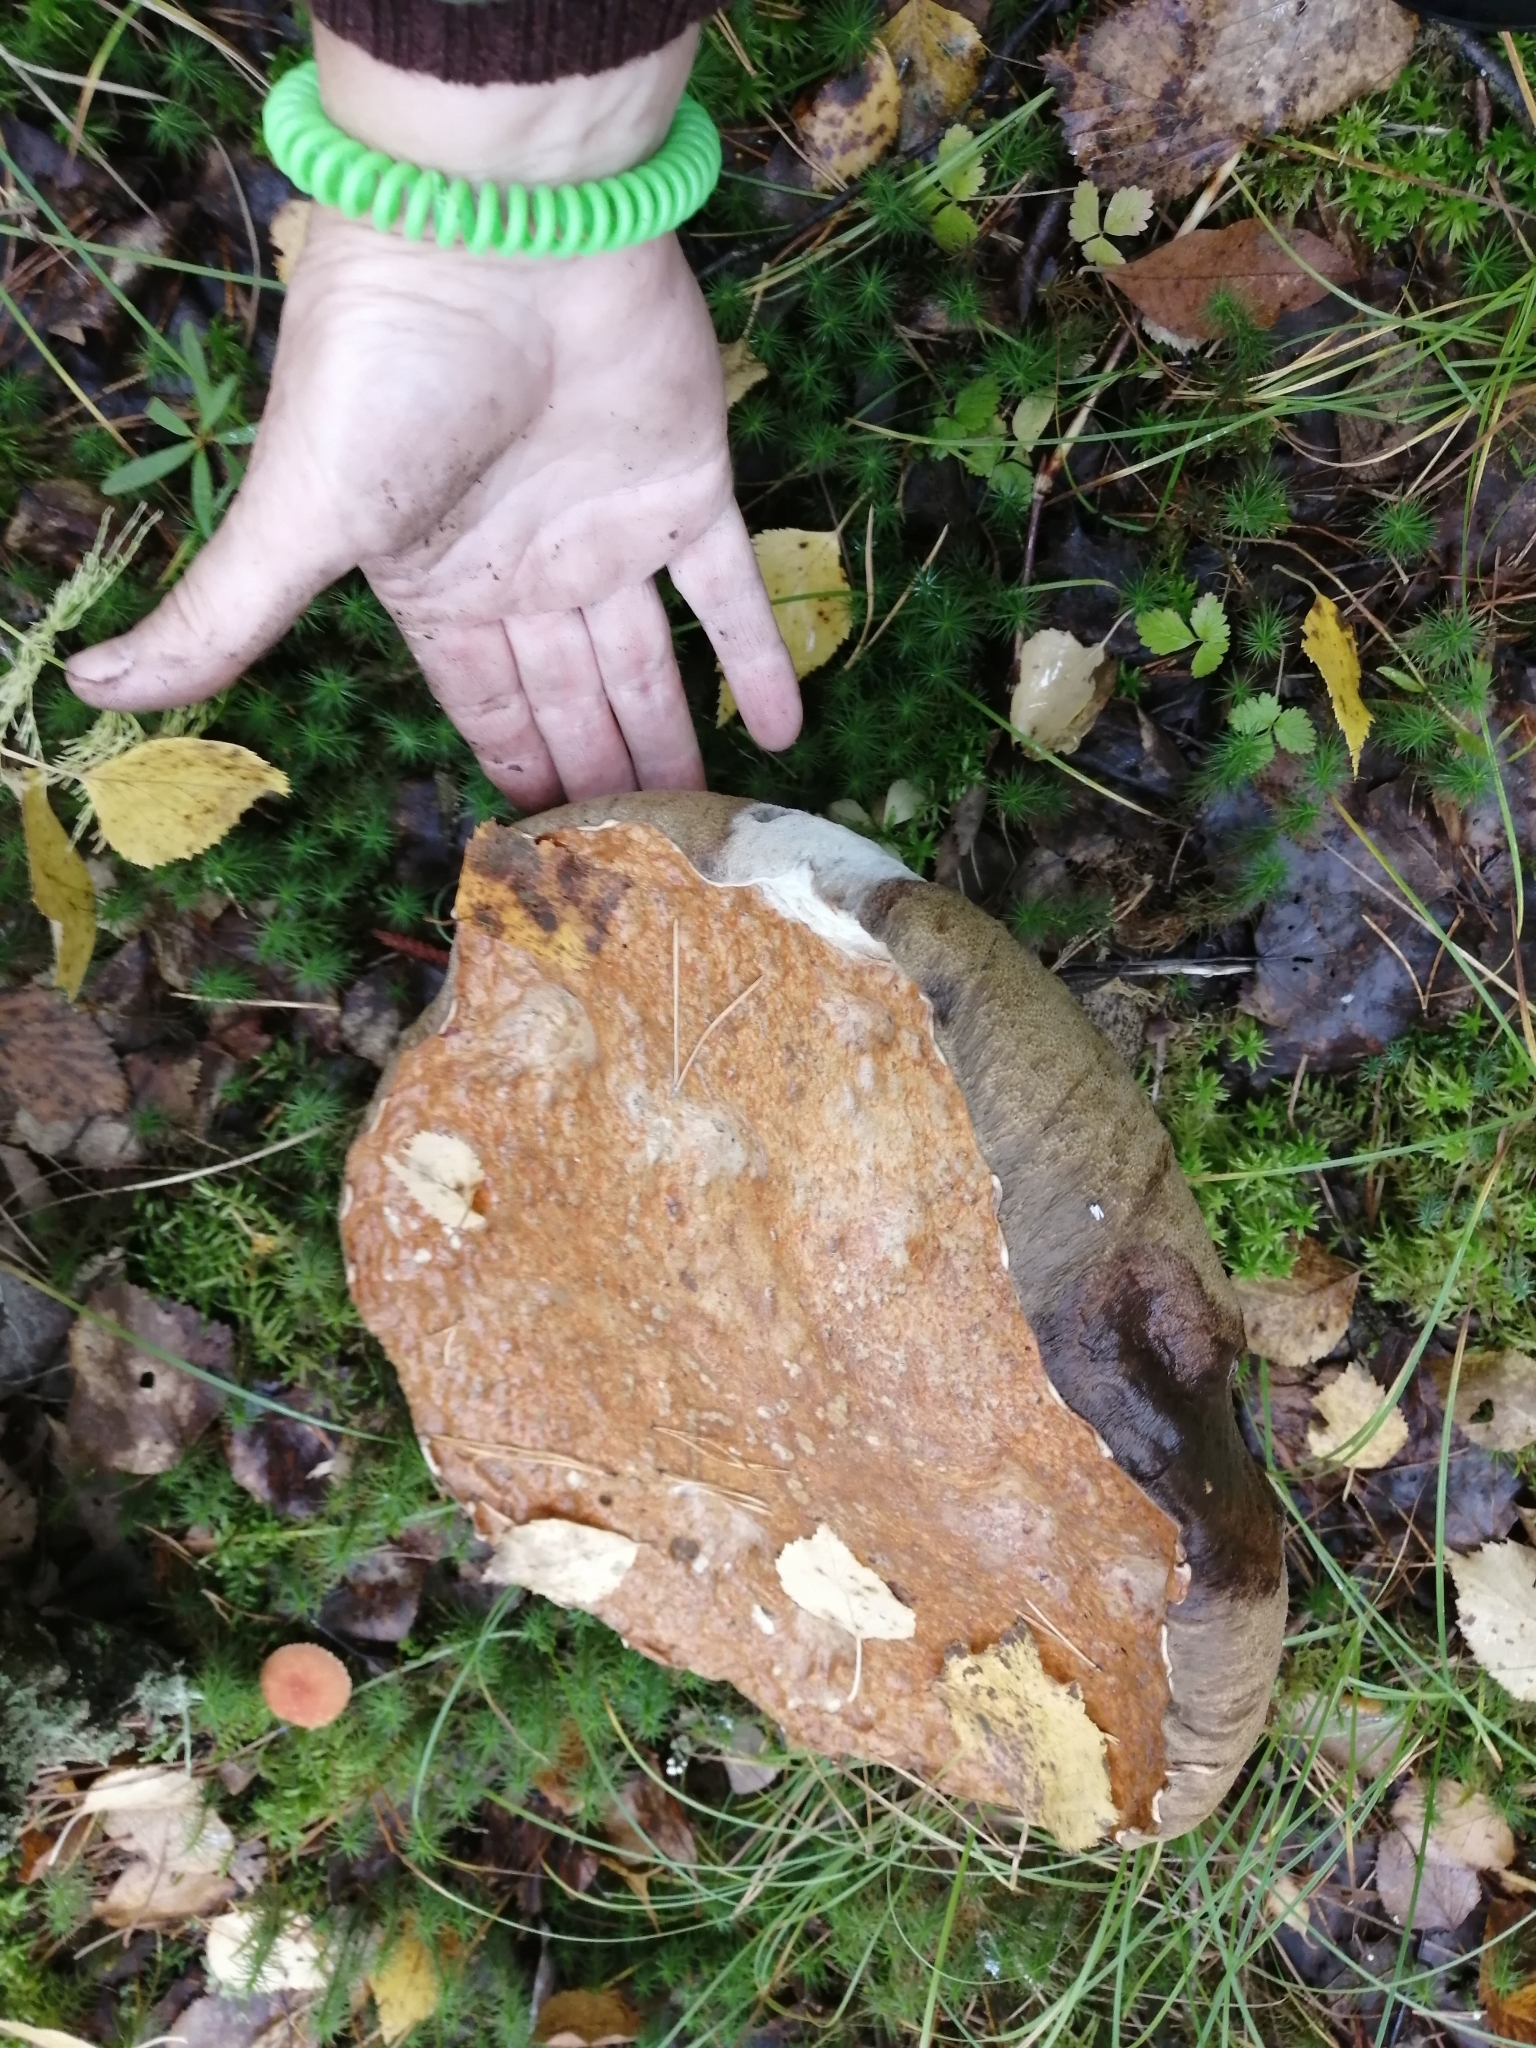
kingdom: Fungi
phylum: Basidiomycota
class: Agaricomycetes
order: Boletales
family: Boletaceae
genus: Boletus
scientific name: Boletus edulis
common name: Cep
